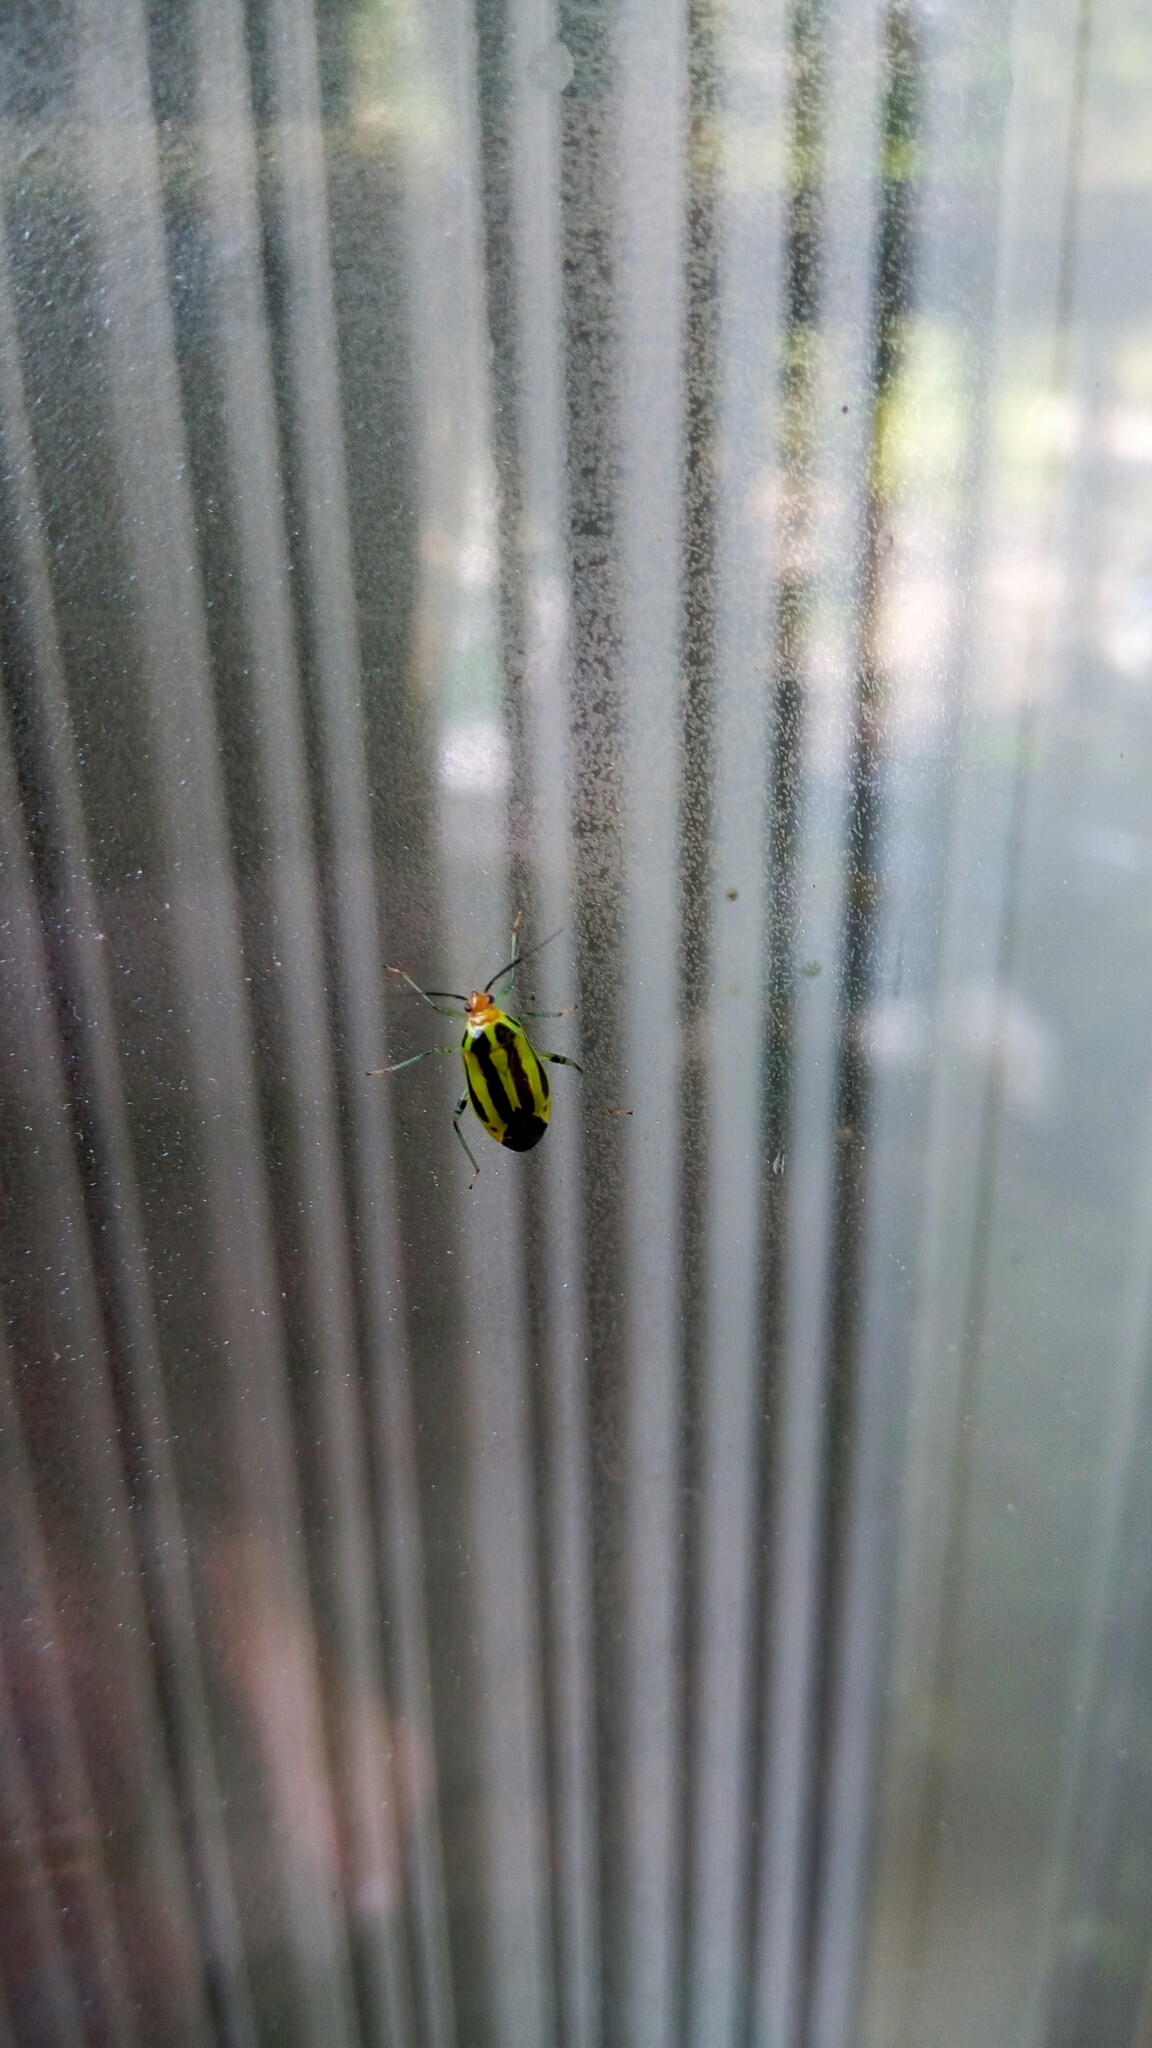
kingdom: Animalia
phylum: Arthropoda
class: Insecta
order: Hemiptera
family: Miridae
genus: Poecilocapsus
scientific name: Poecilocapsus lineatus
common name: Four-lined plant bug
